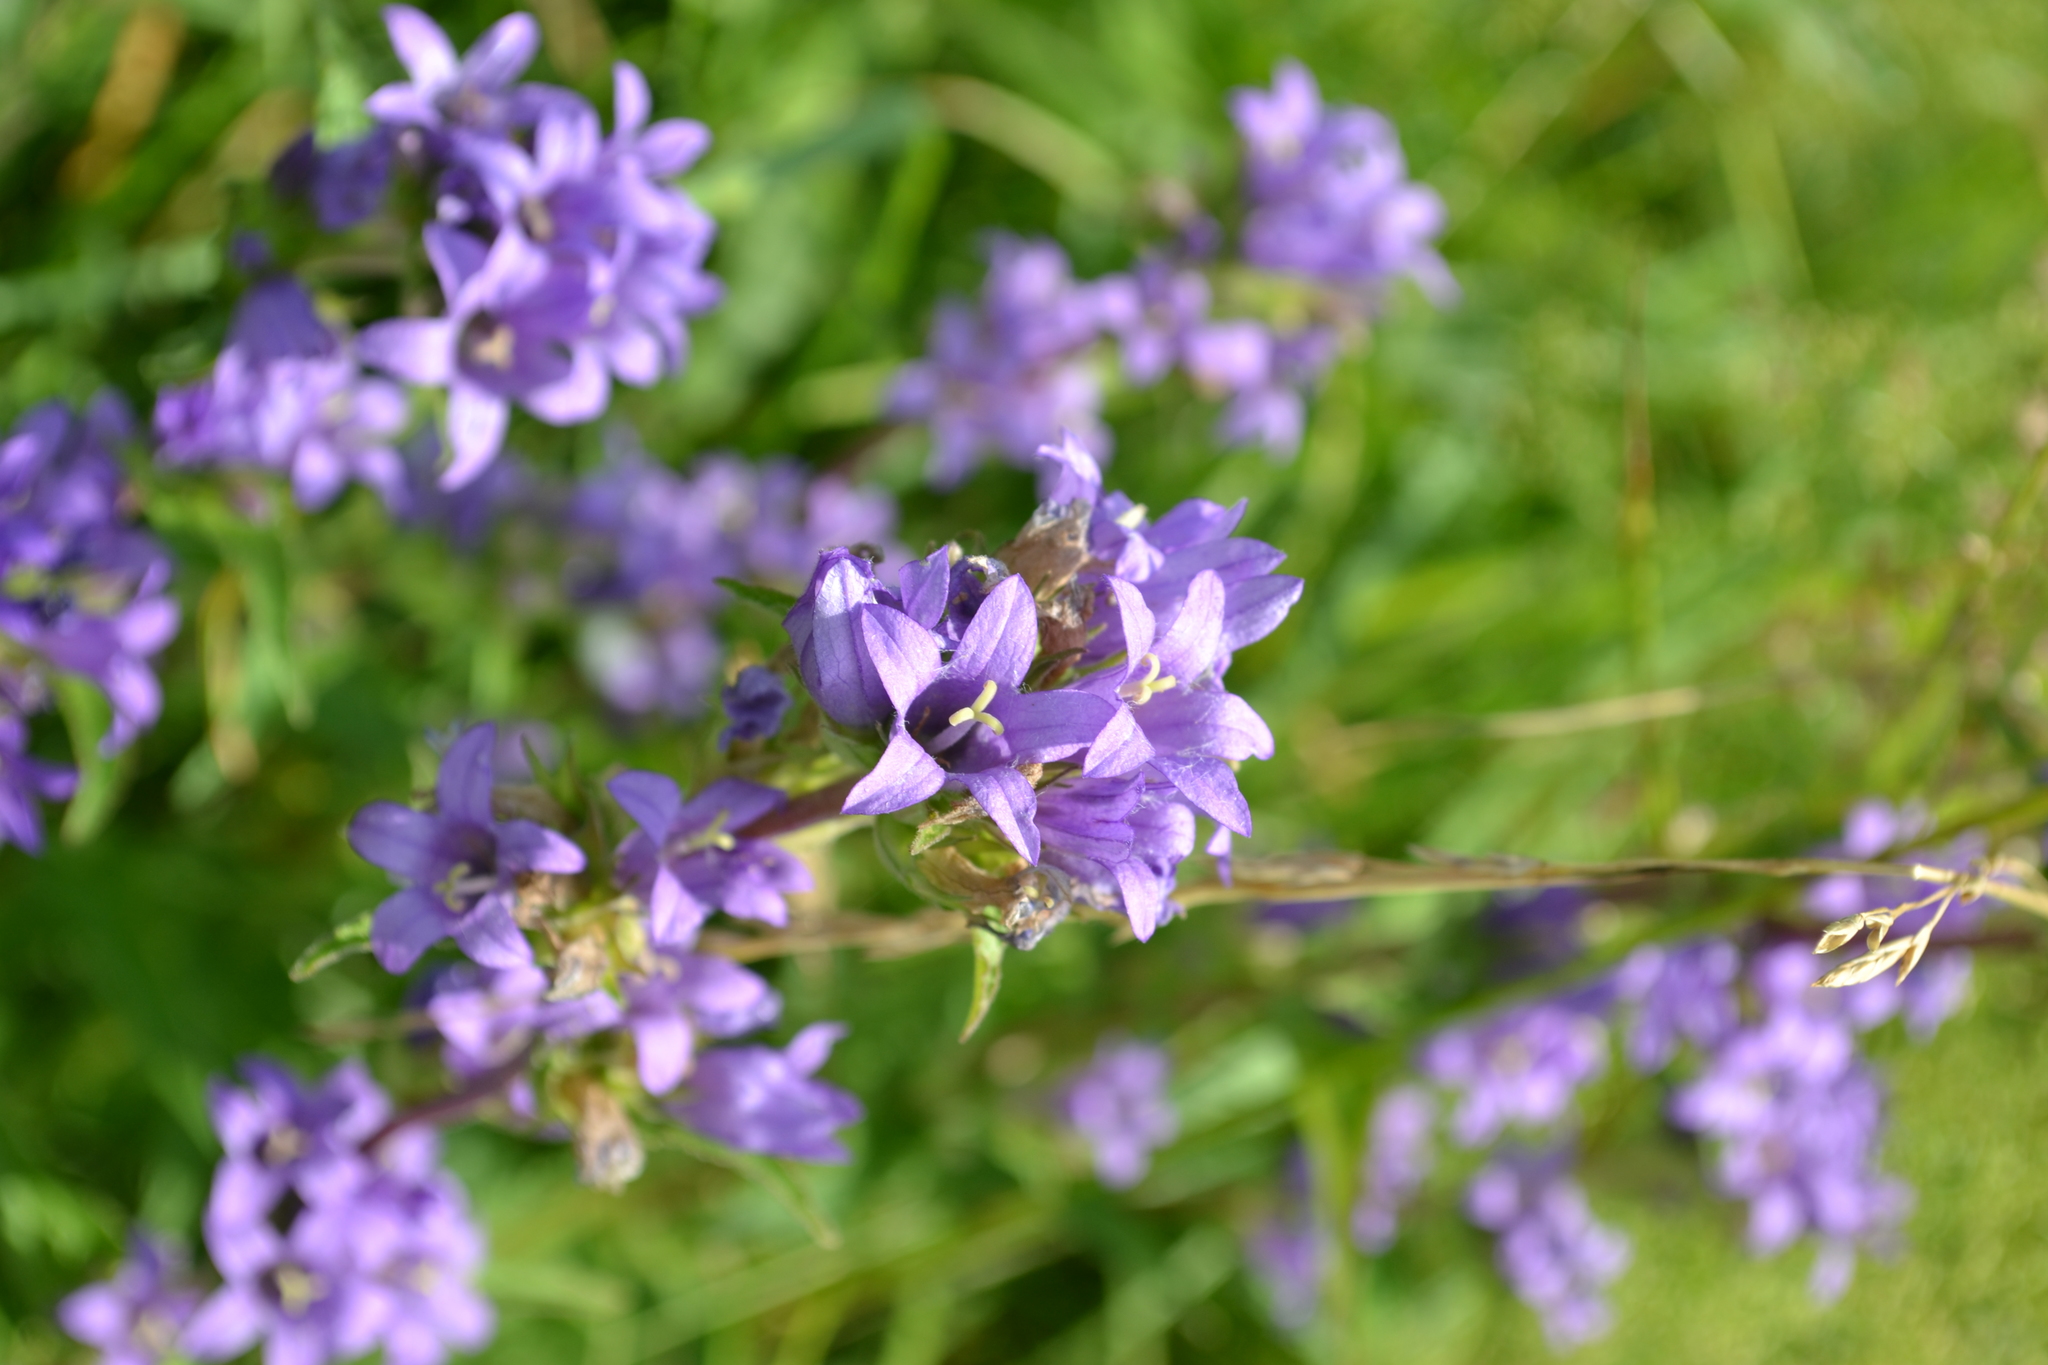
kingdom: Plantae
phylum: Tracheophyta
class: Magnoliopsida
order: Asterales
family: Campanulaceae
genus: Campanula
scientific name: Campanula glomerata
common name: Clustered bellflower
